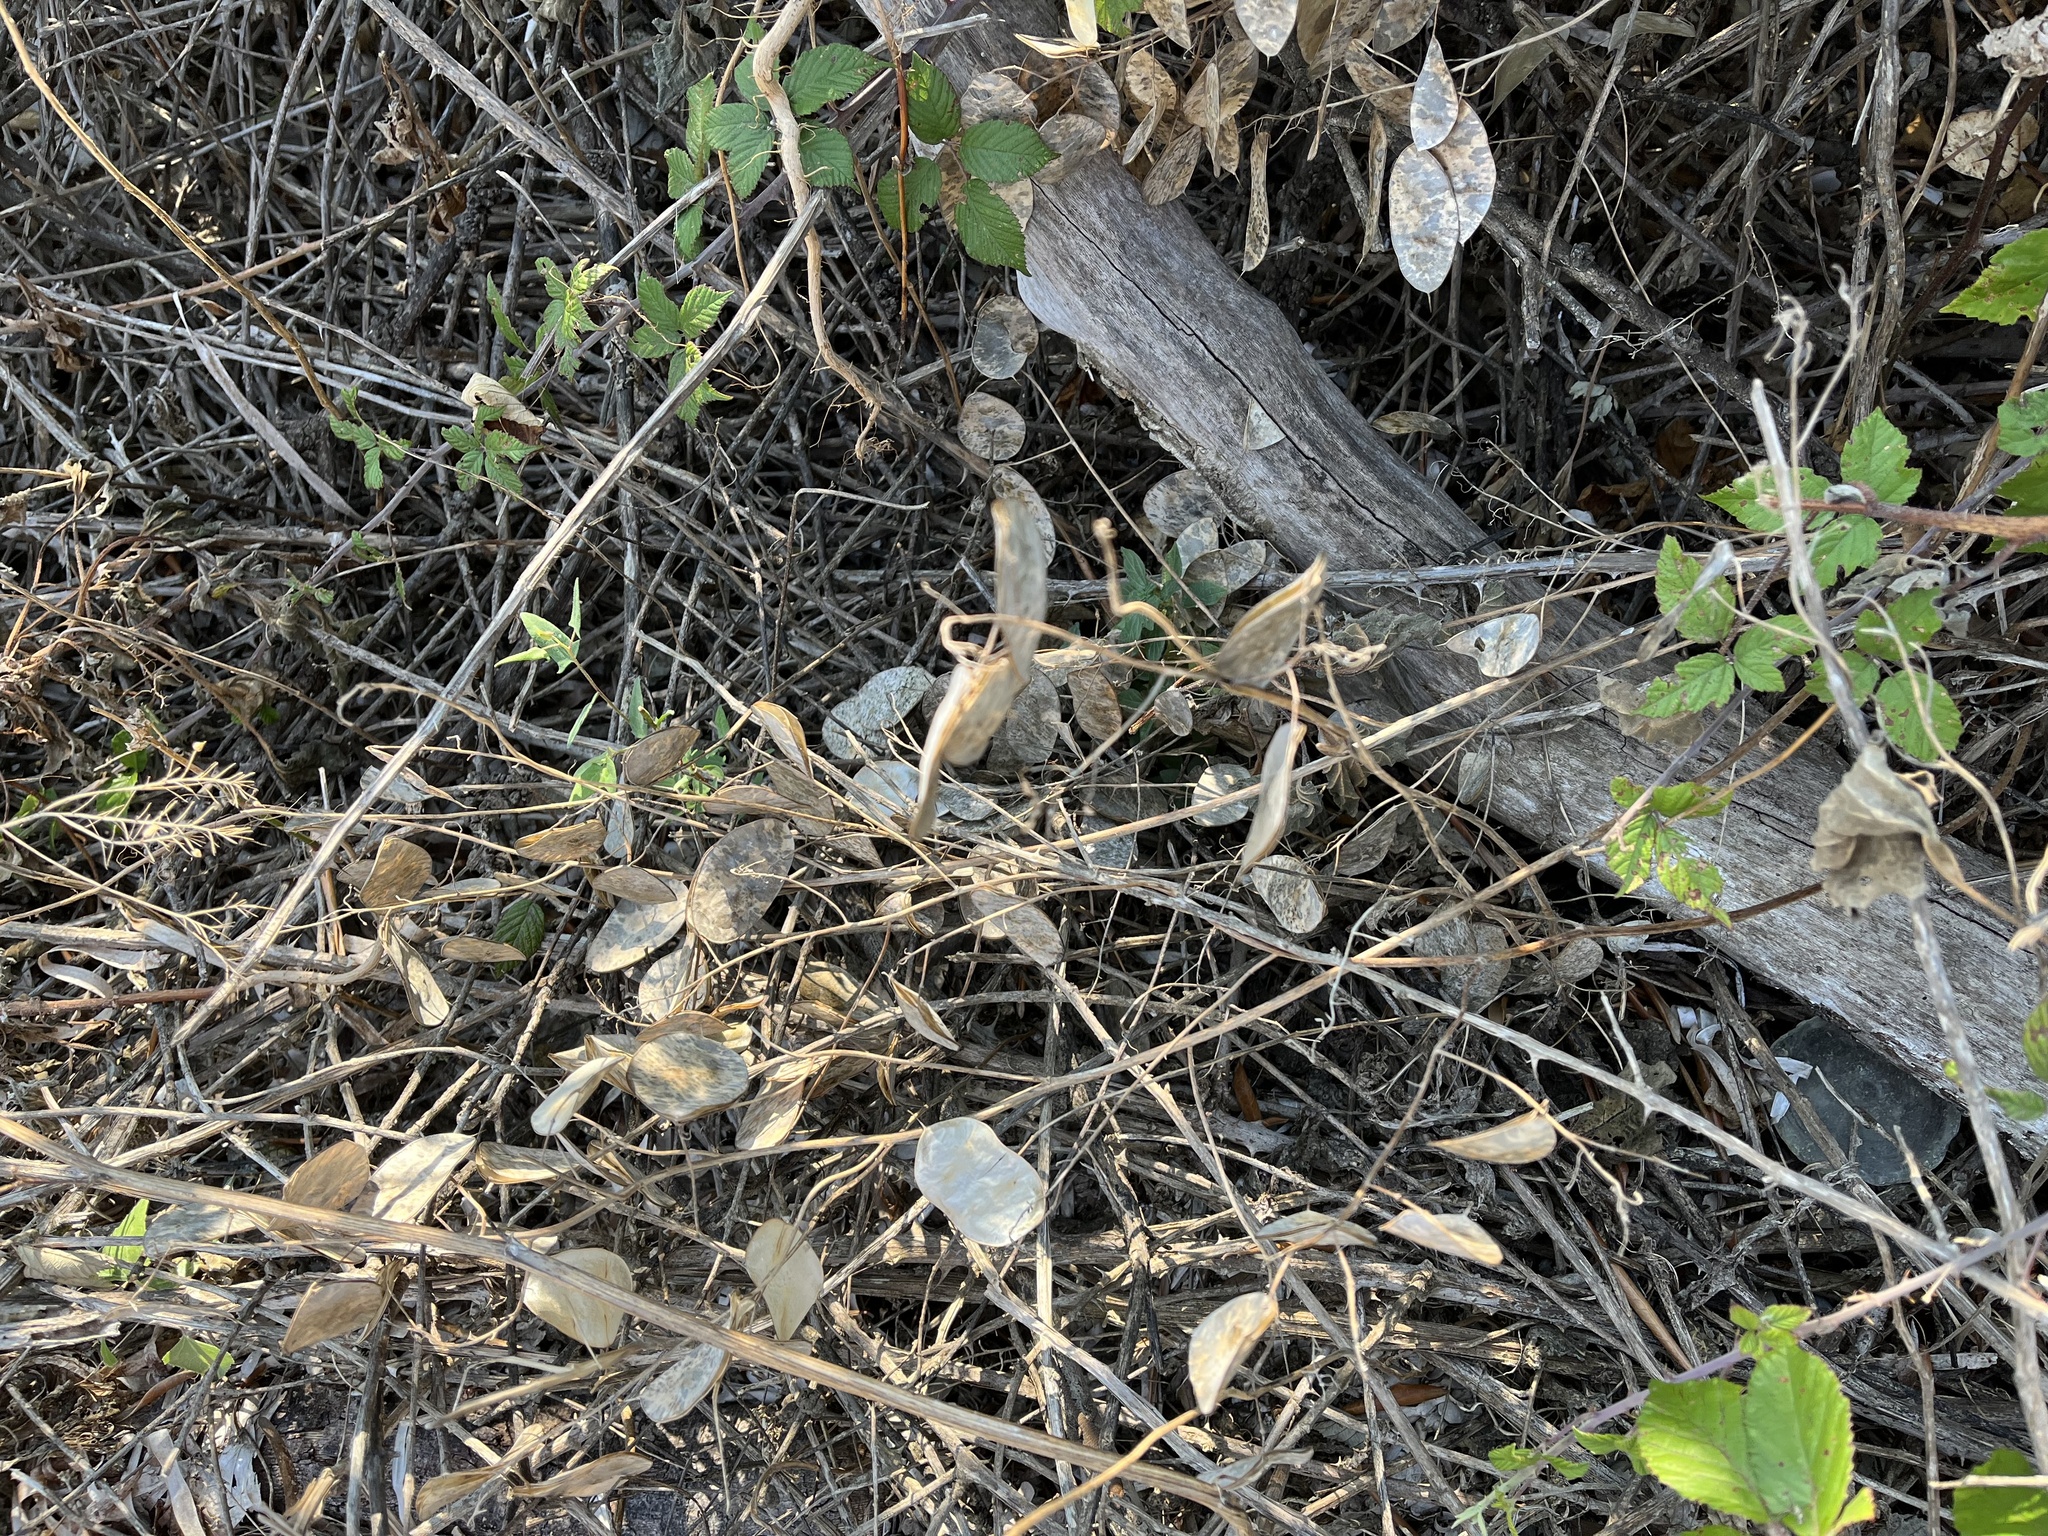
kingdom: Plantae
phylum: Tracheophyta
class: Magnoliopsida
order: Brassicales
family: Brassicaceae
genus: Lunaria
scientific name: Lunaria annua
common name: Honesty
